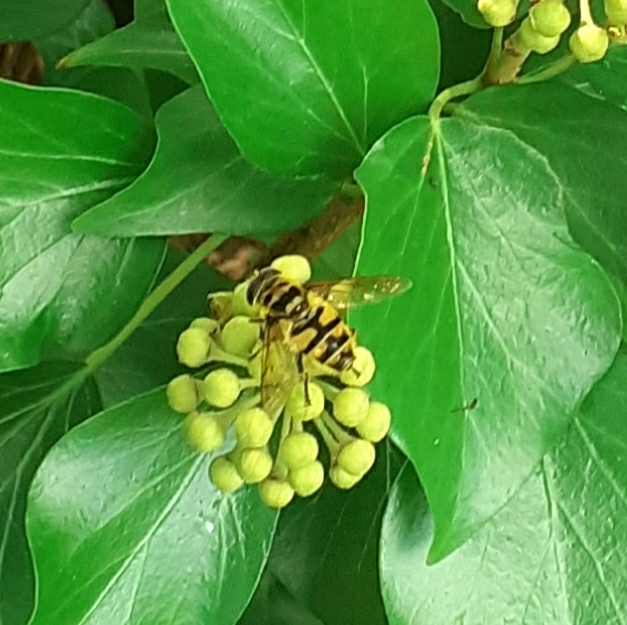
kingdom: Animalia
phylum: Arthropoda
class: Insecta
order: Diptera
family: Syrphidae
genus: Myathropa
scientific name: Myathropa florea
